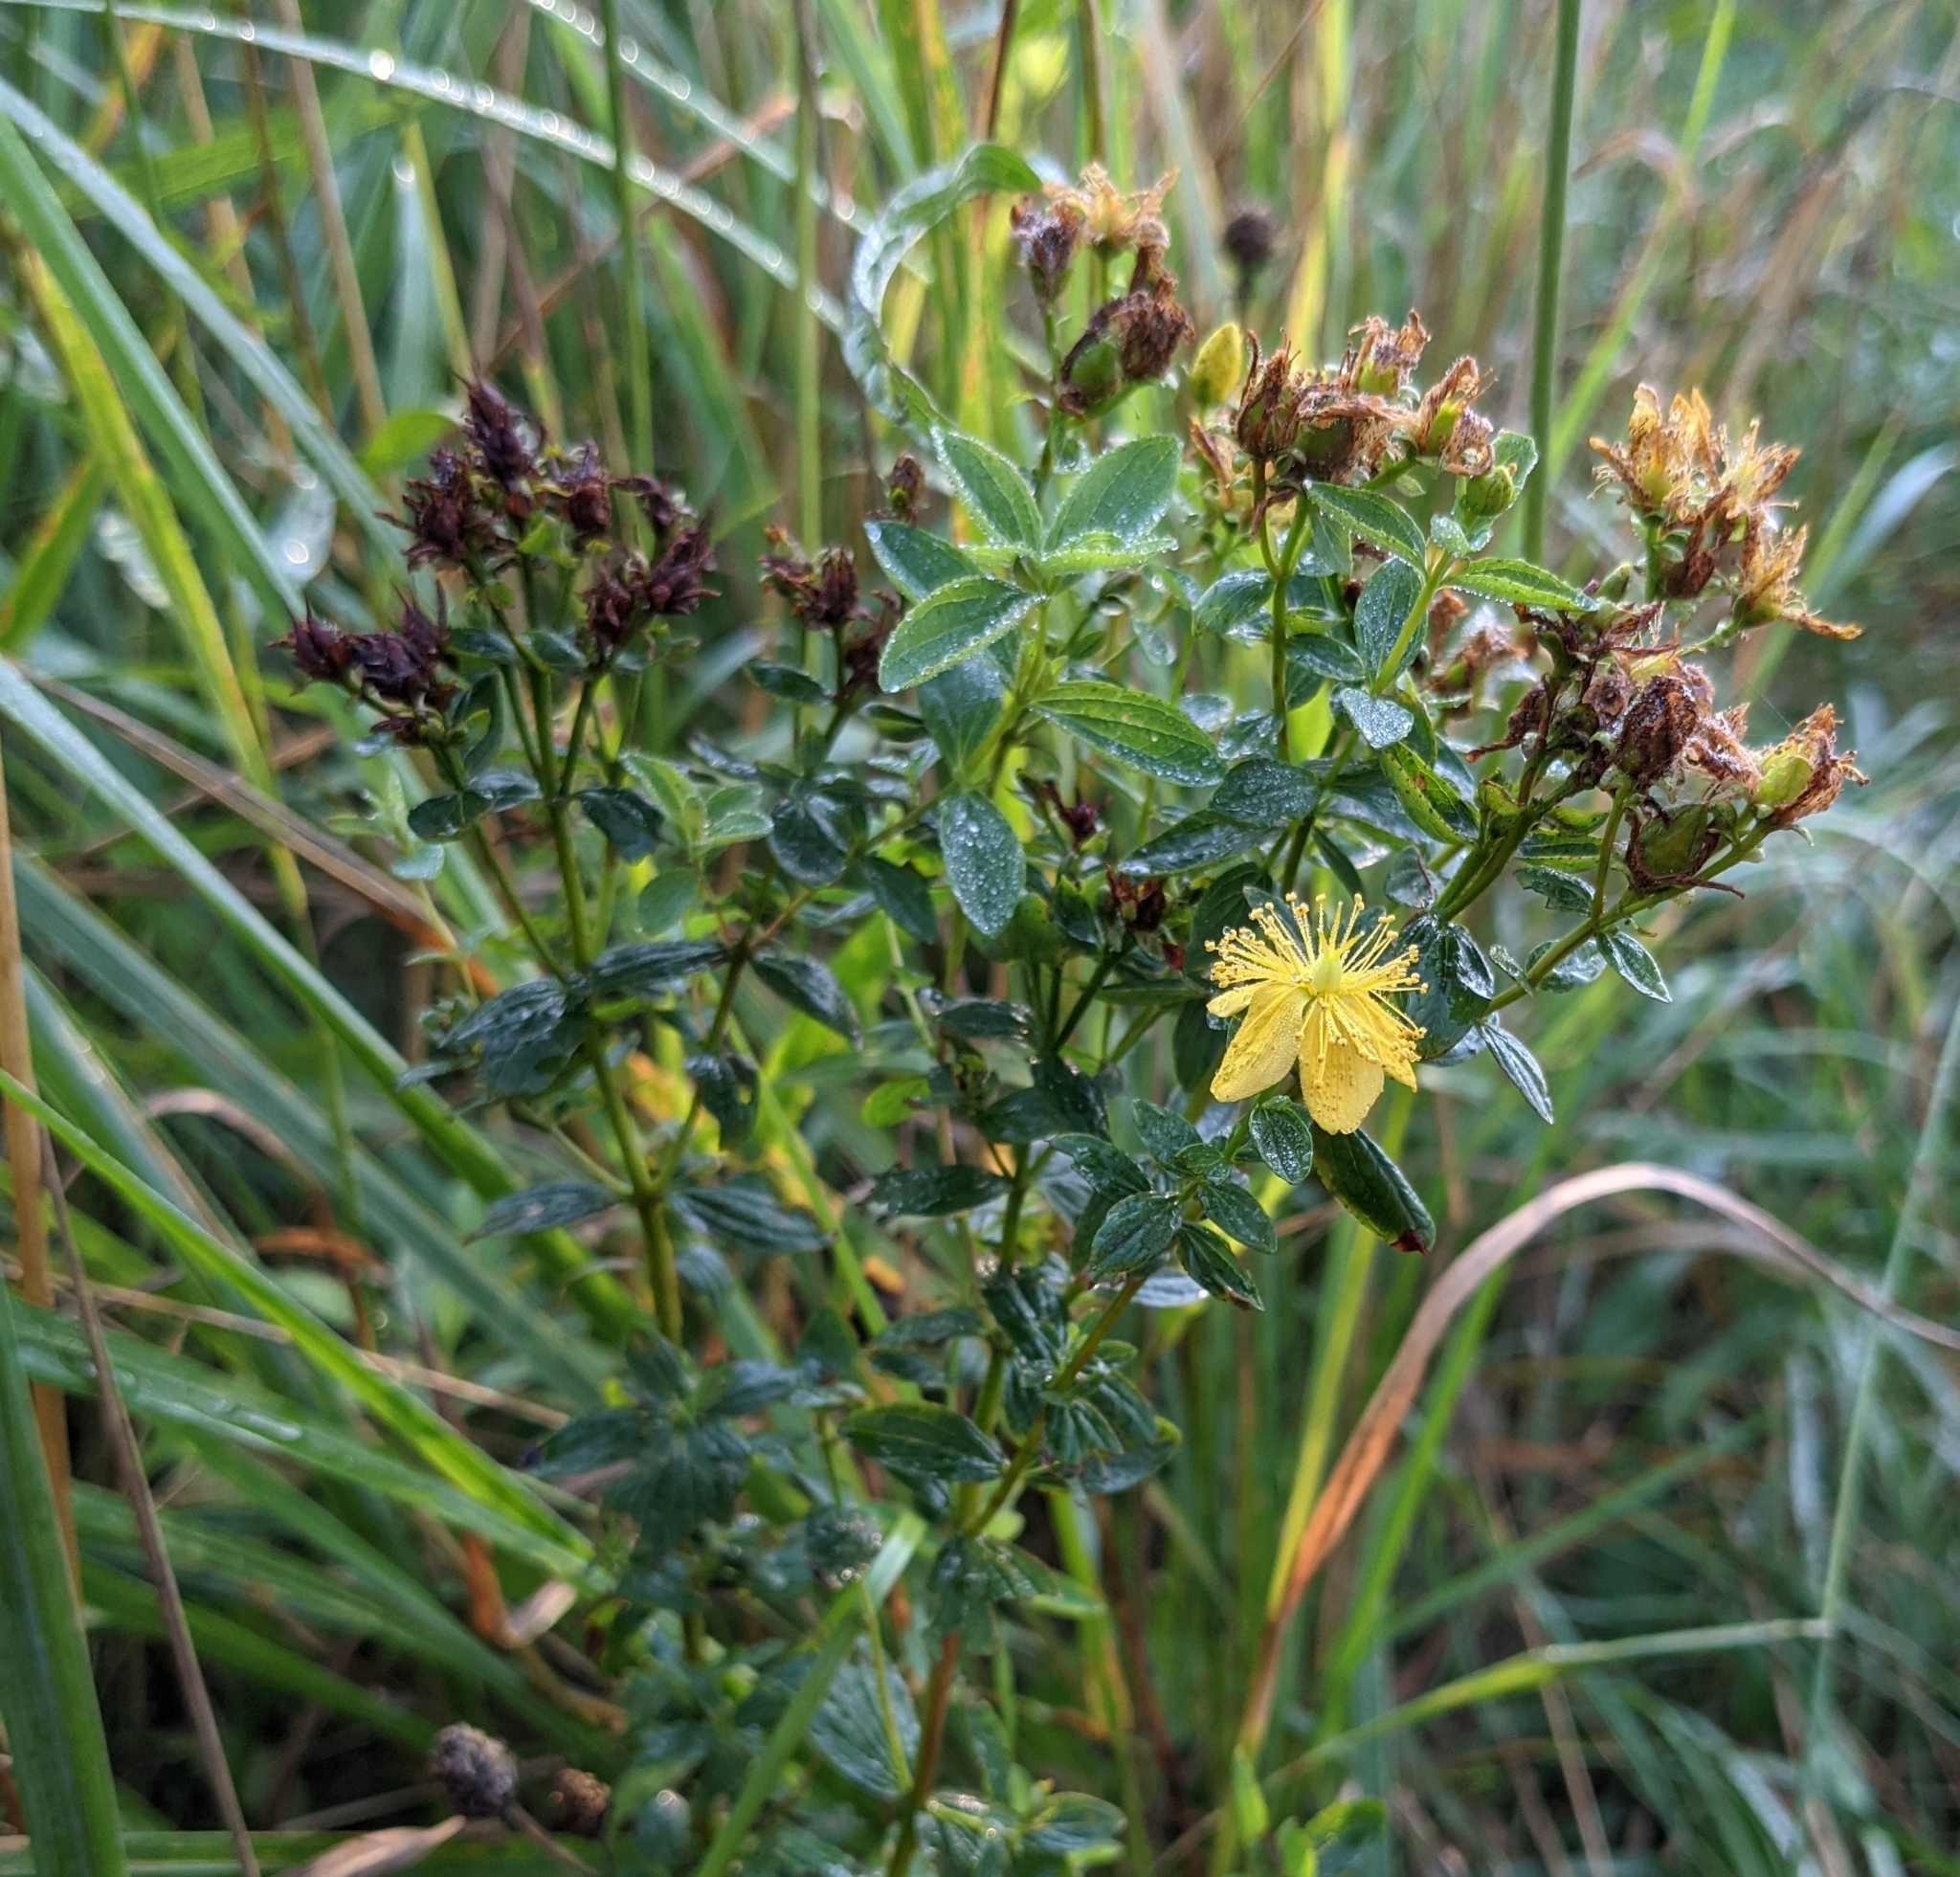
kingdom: Plantae
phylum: Tracheophyta
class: Magnoliopsida
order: Malpighiales
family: Hypericaceae
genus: Hypericum
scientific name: Hypericum maculatum
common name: Imperforate st. john's-wort
